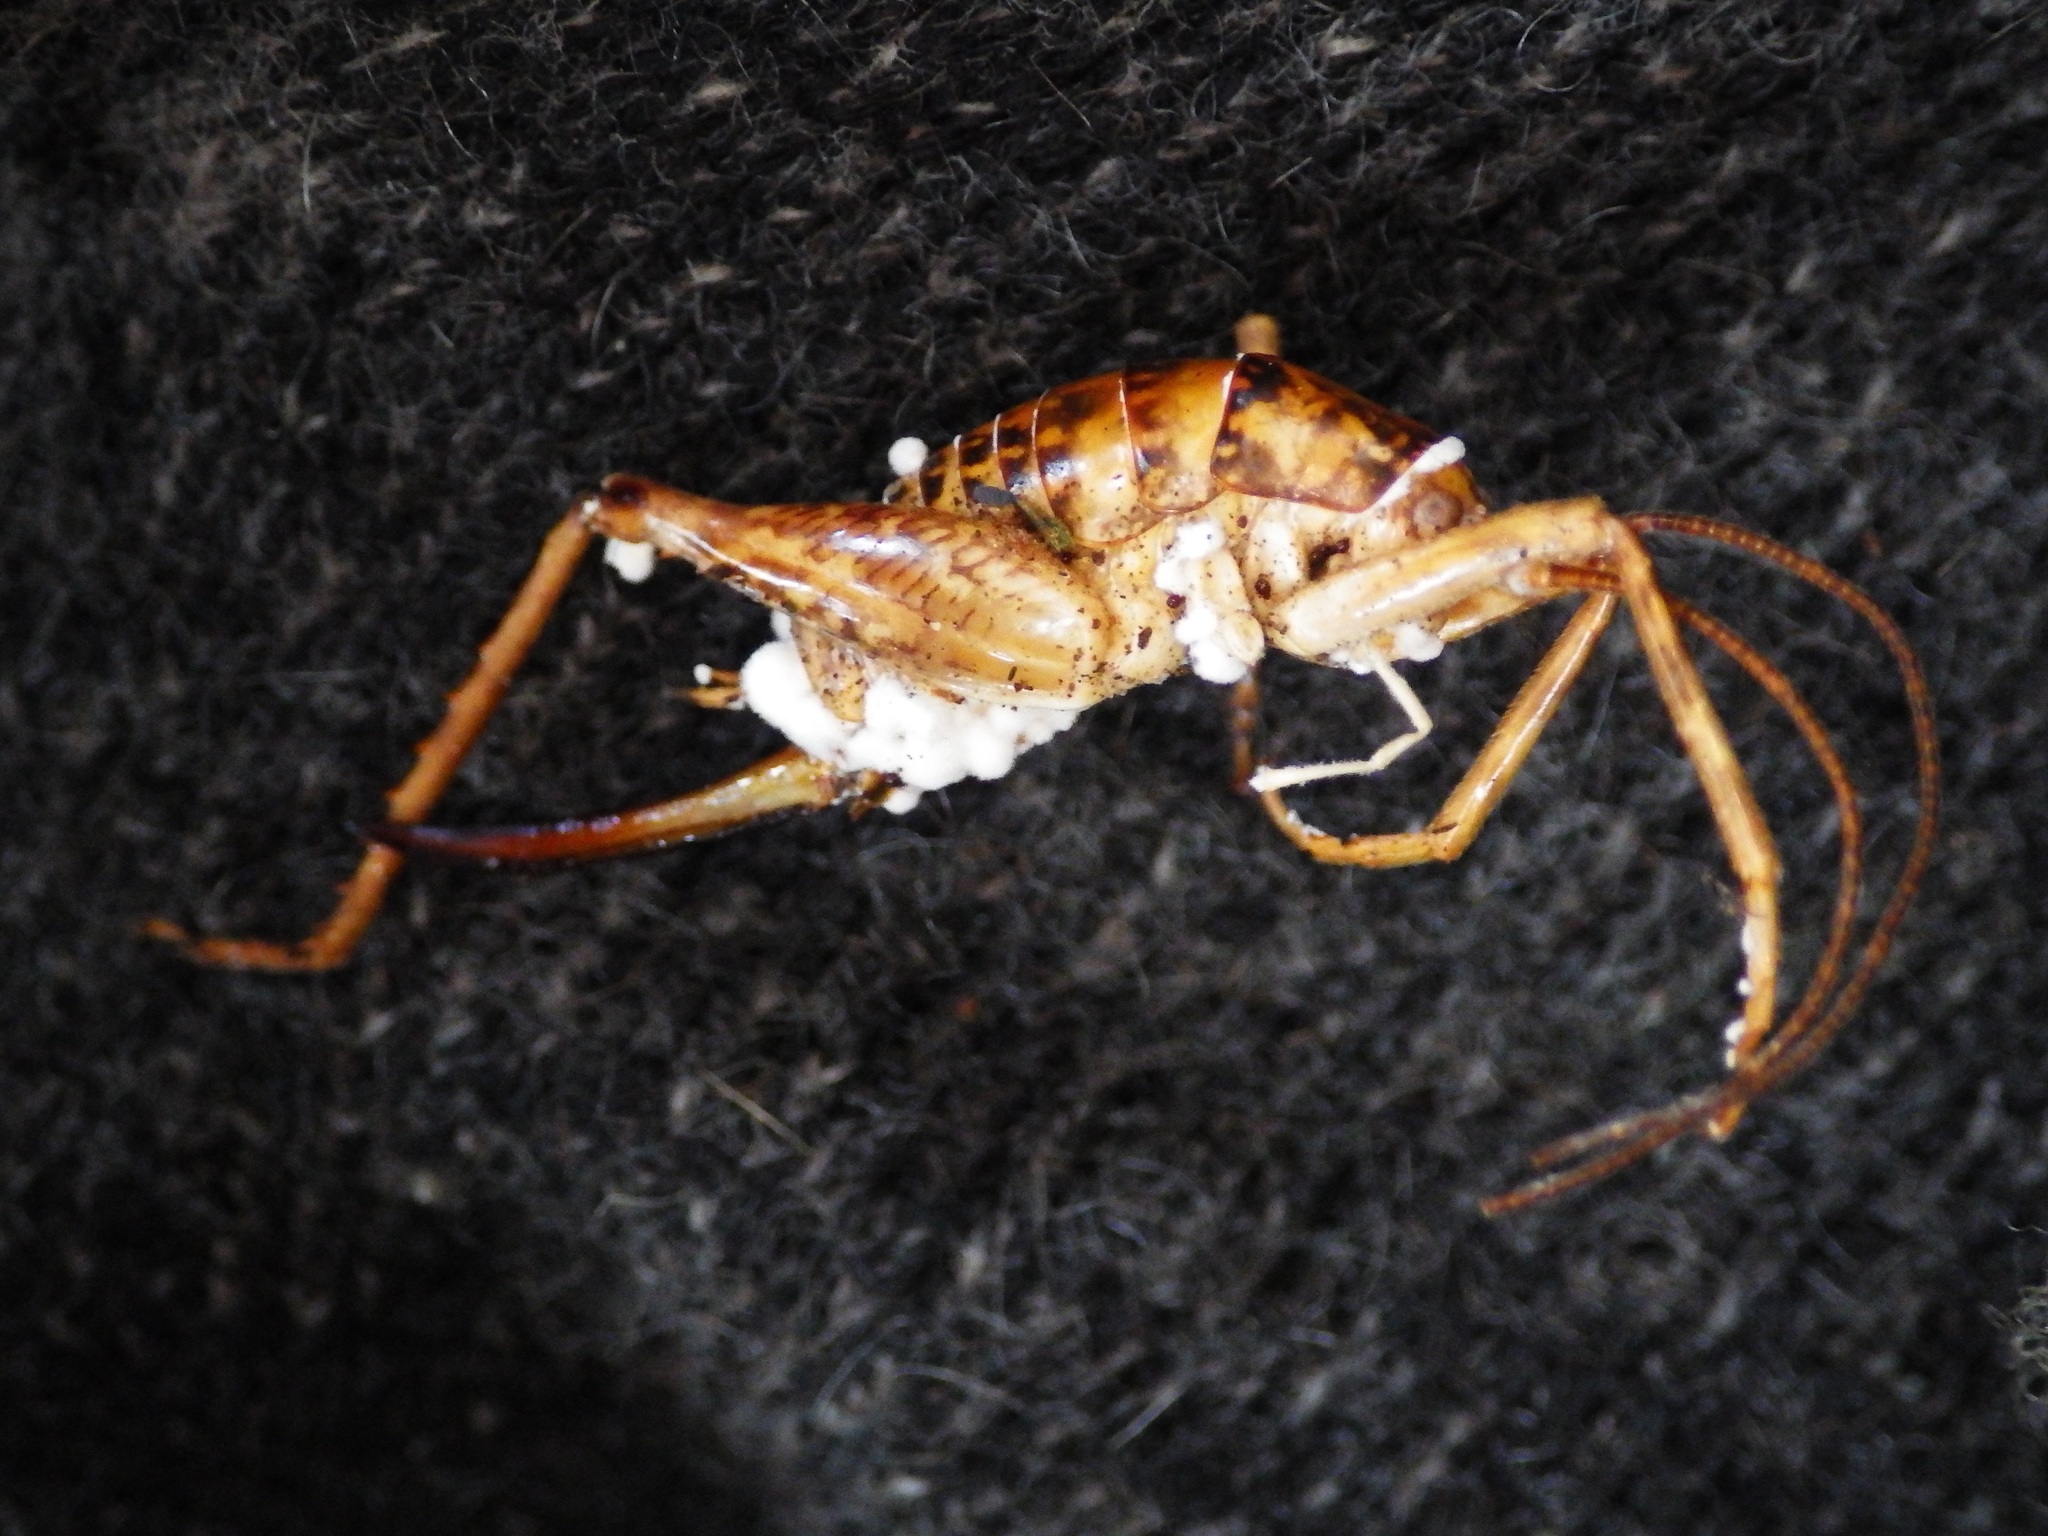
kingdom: Fungi
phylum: Ascomycota
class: Sordariomycetes
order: Hypocreales
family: Cordycipitaceae
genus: Beauveria
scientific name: Beauveria bassiana
